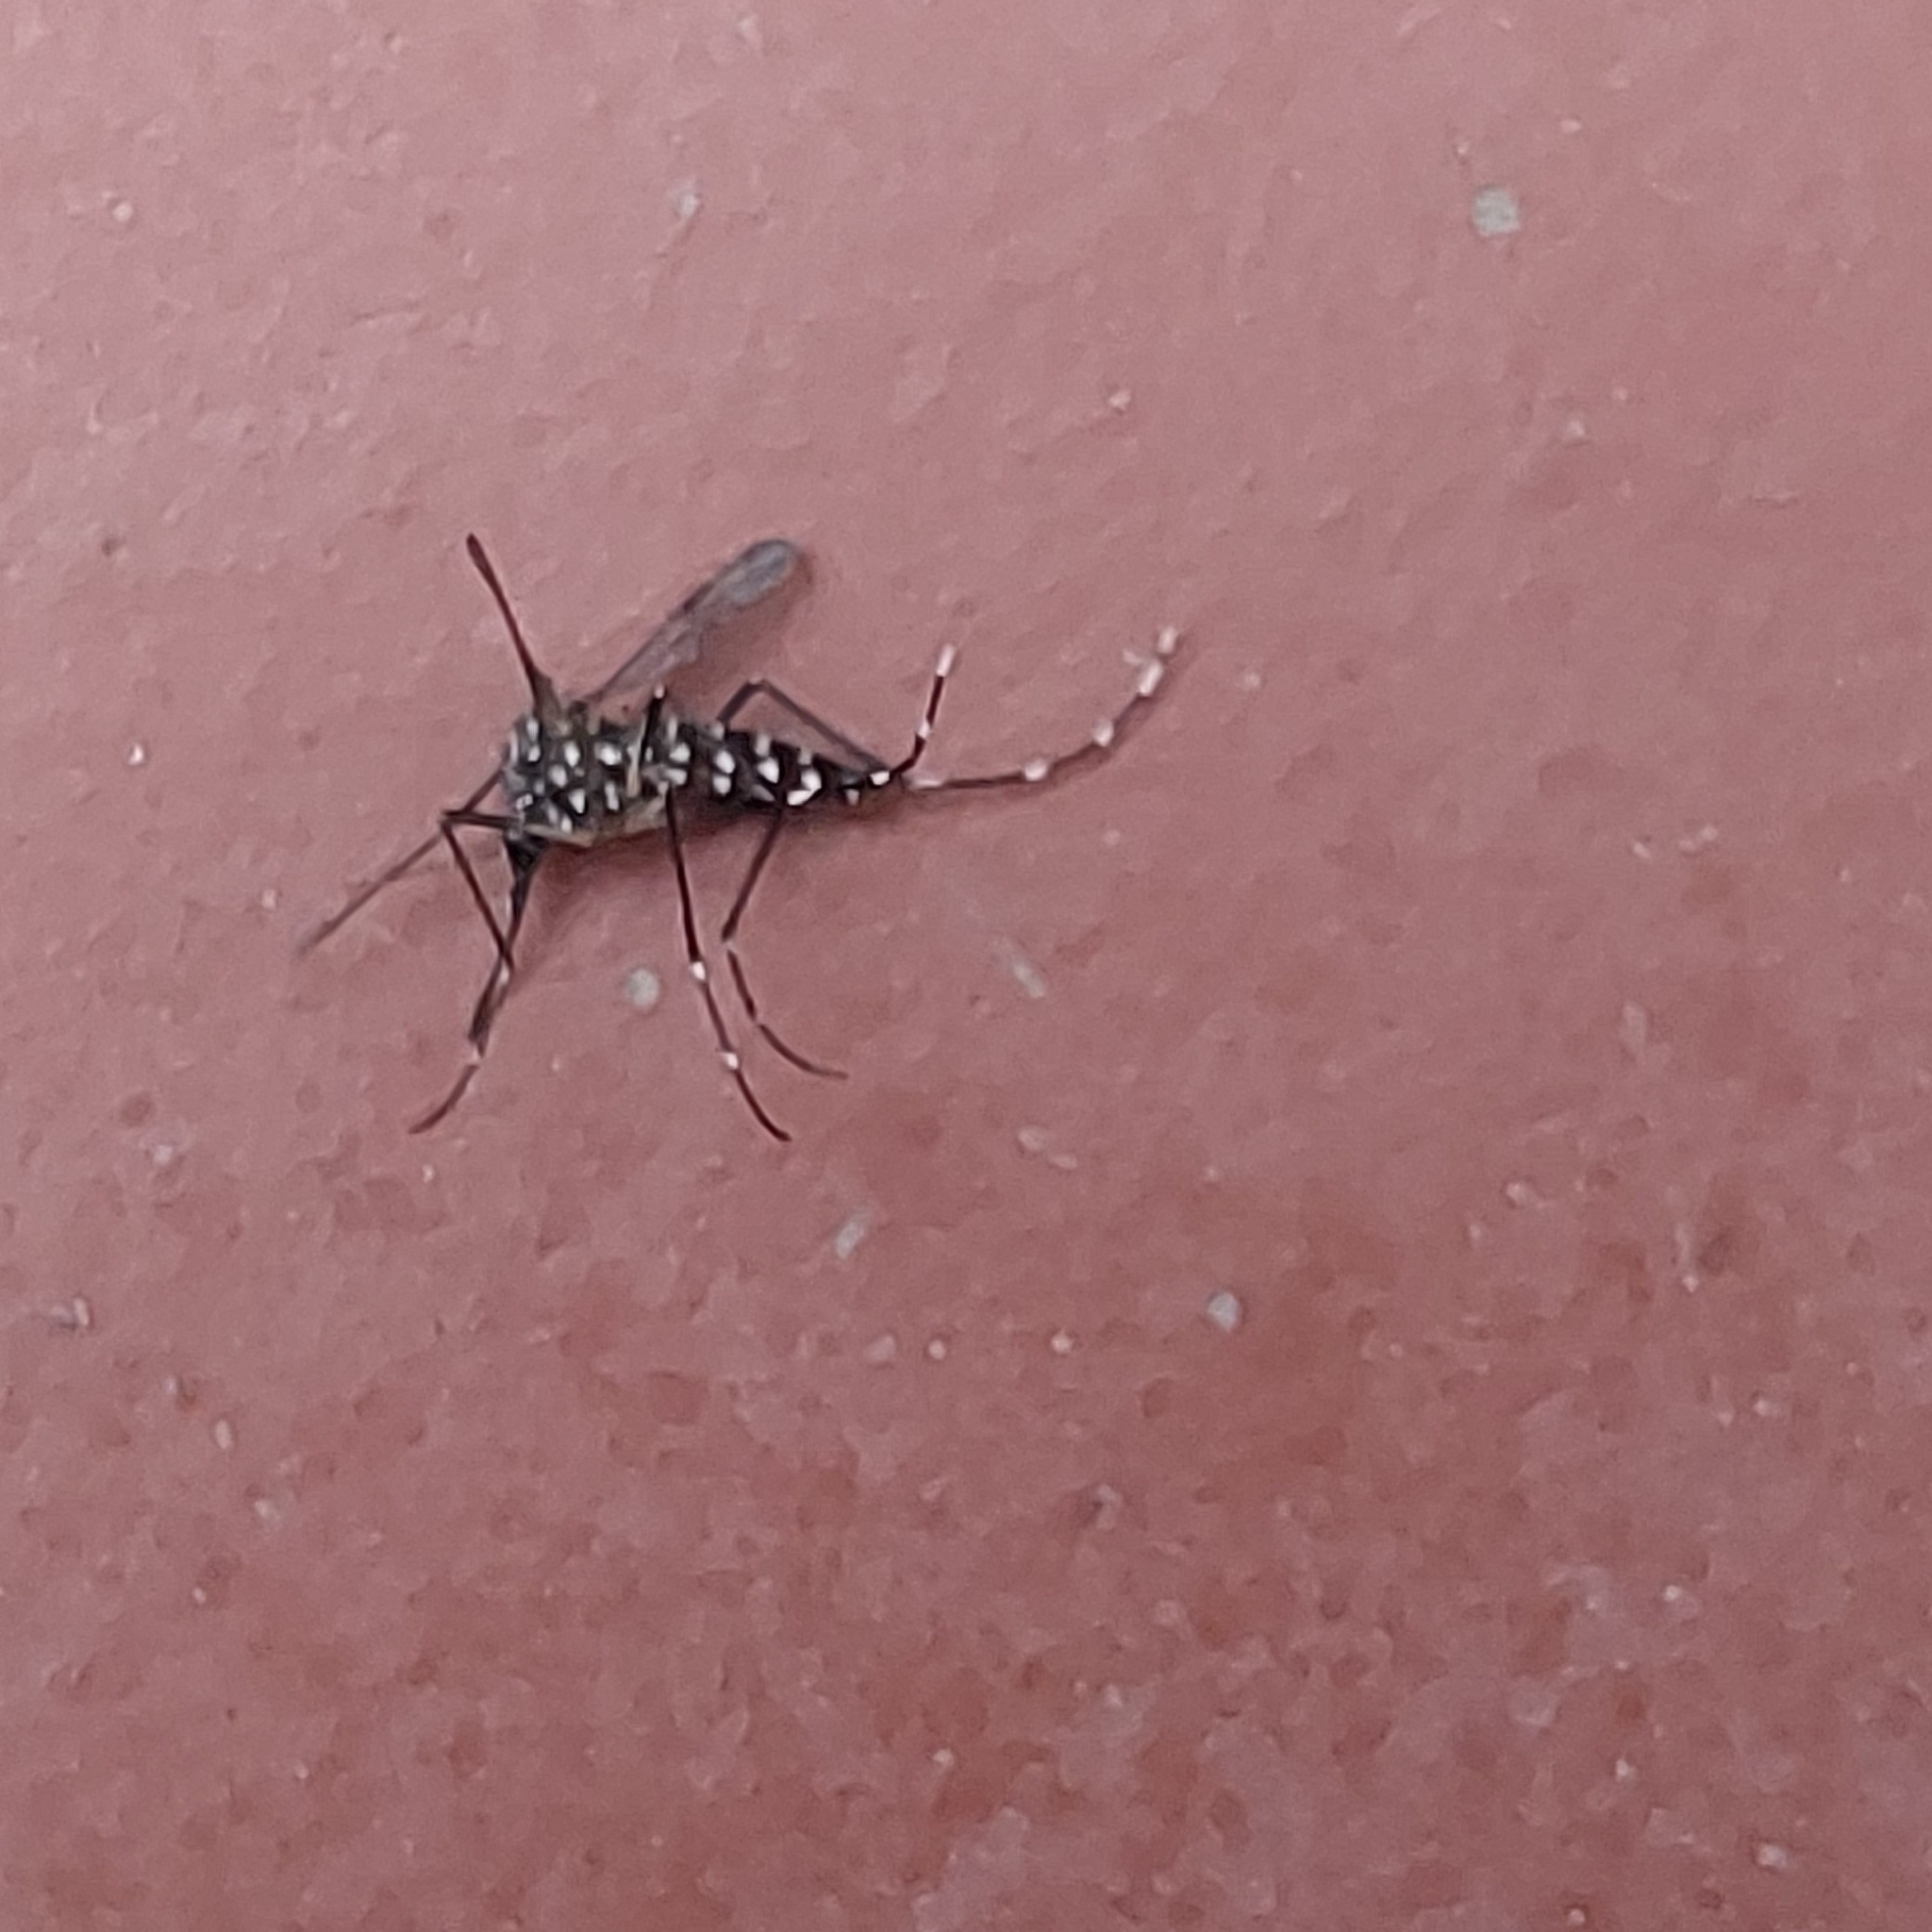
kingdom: Animalia
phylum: Arthropoda
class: Insecta
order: Diptera
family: Culicidae
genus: Aedes
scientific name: Aedes aegypti
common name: Yellow fever mosquito
